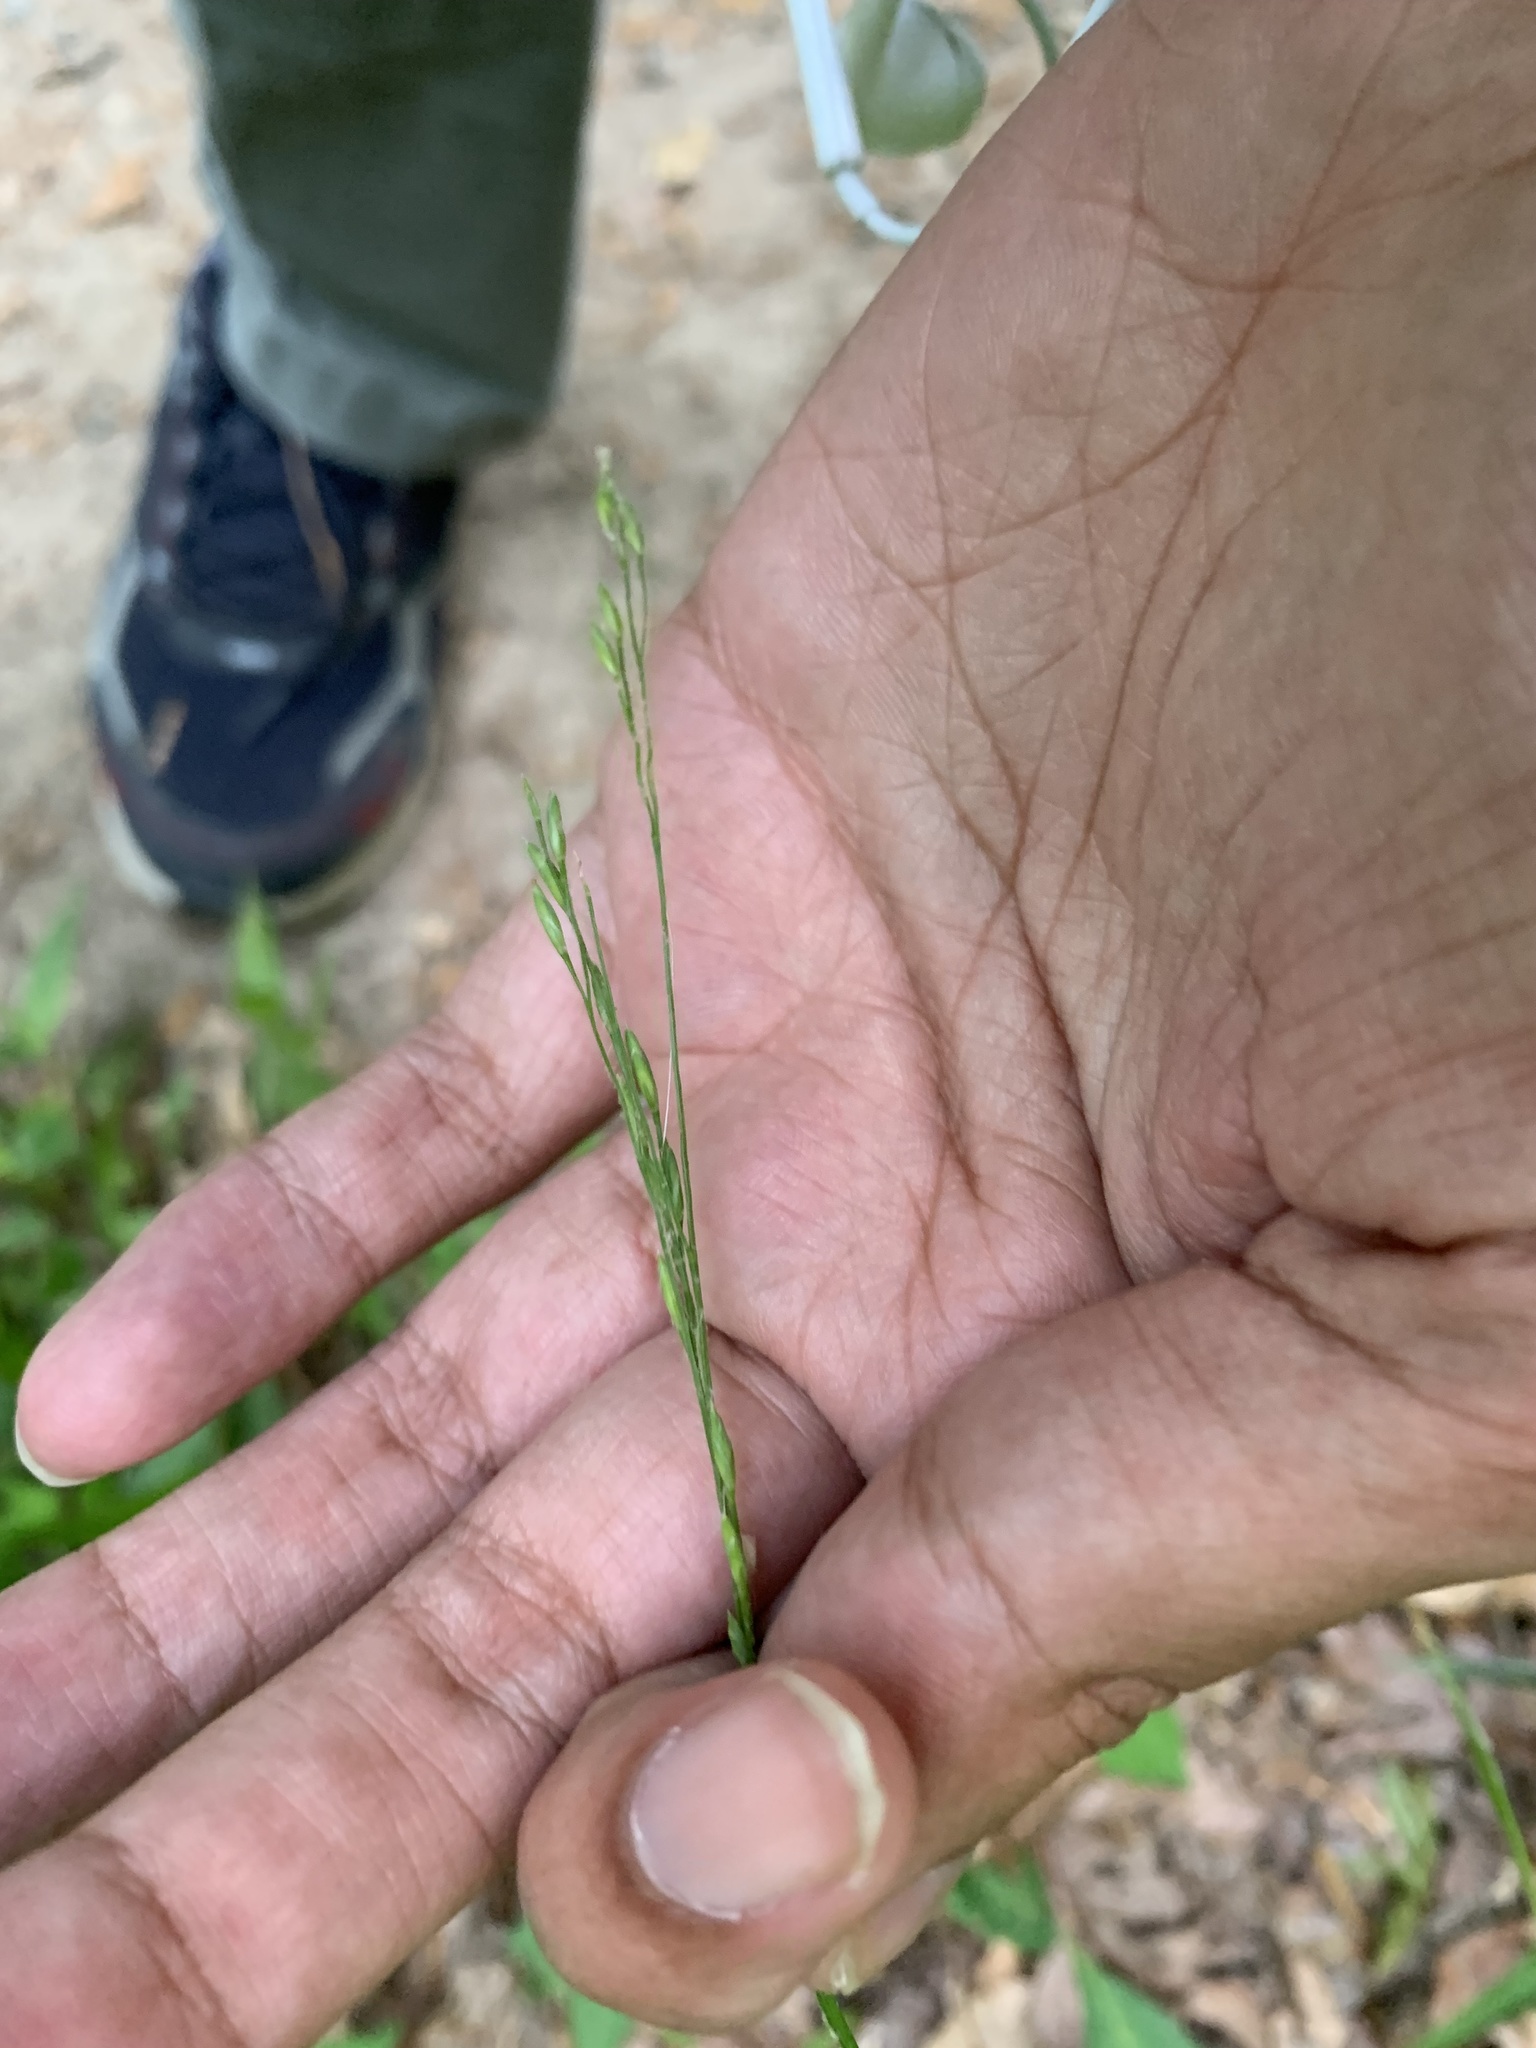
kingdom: Plantae
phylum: Tracheophyta
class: Liliopsida
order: Poales
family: Poaceae
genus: Festuca
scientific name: Festuca subverticillata
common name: Nodding fescue
